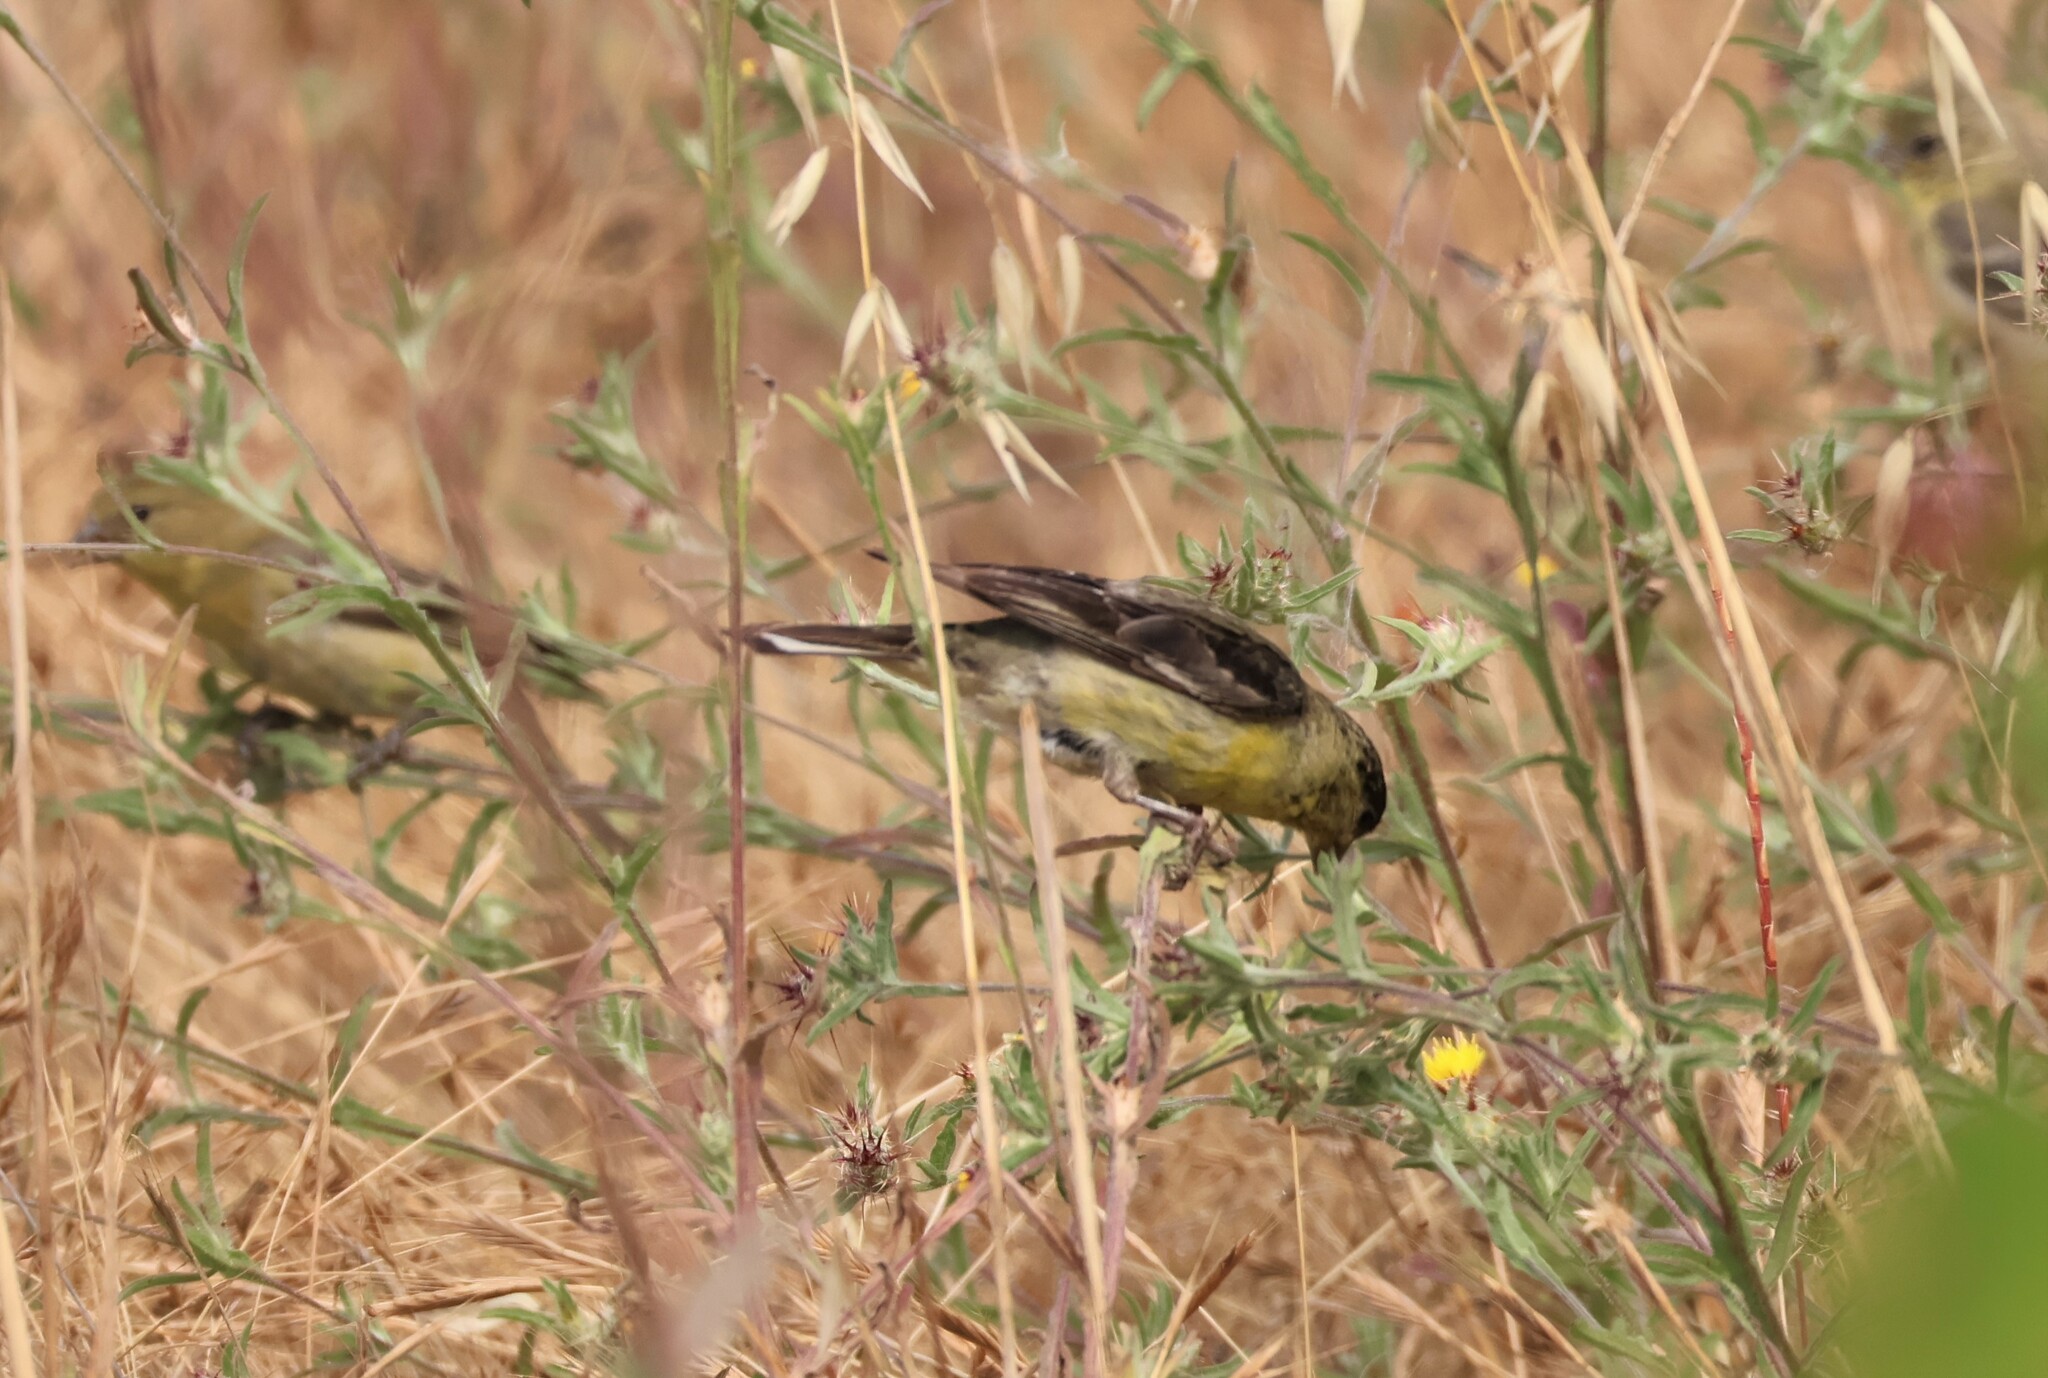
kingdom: Animalia
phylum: Chordata
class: Aves
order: Passeriformes
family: Fringillidae
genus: Spinus
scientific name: Spinus psaltria
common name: Lesser goldfinch
